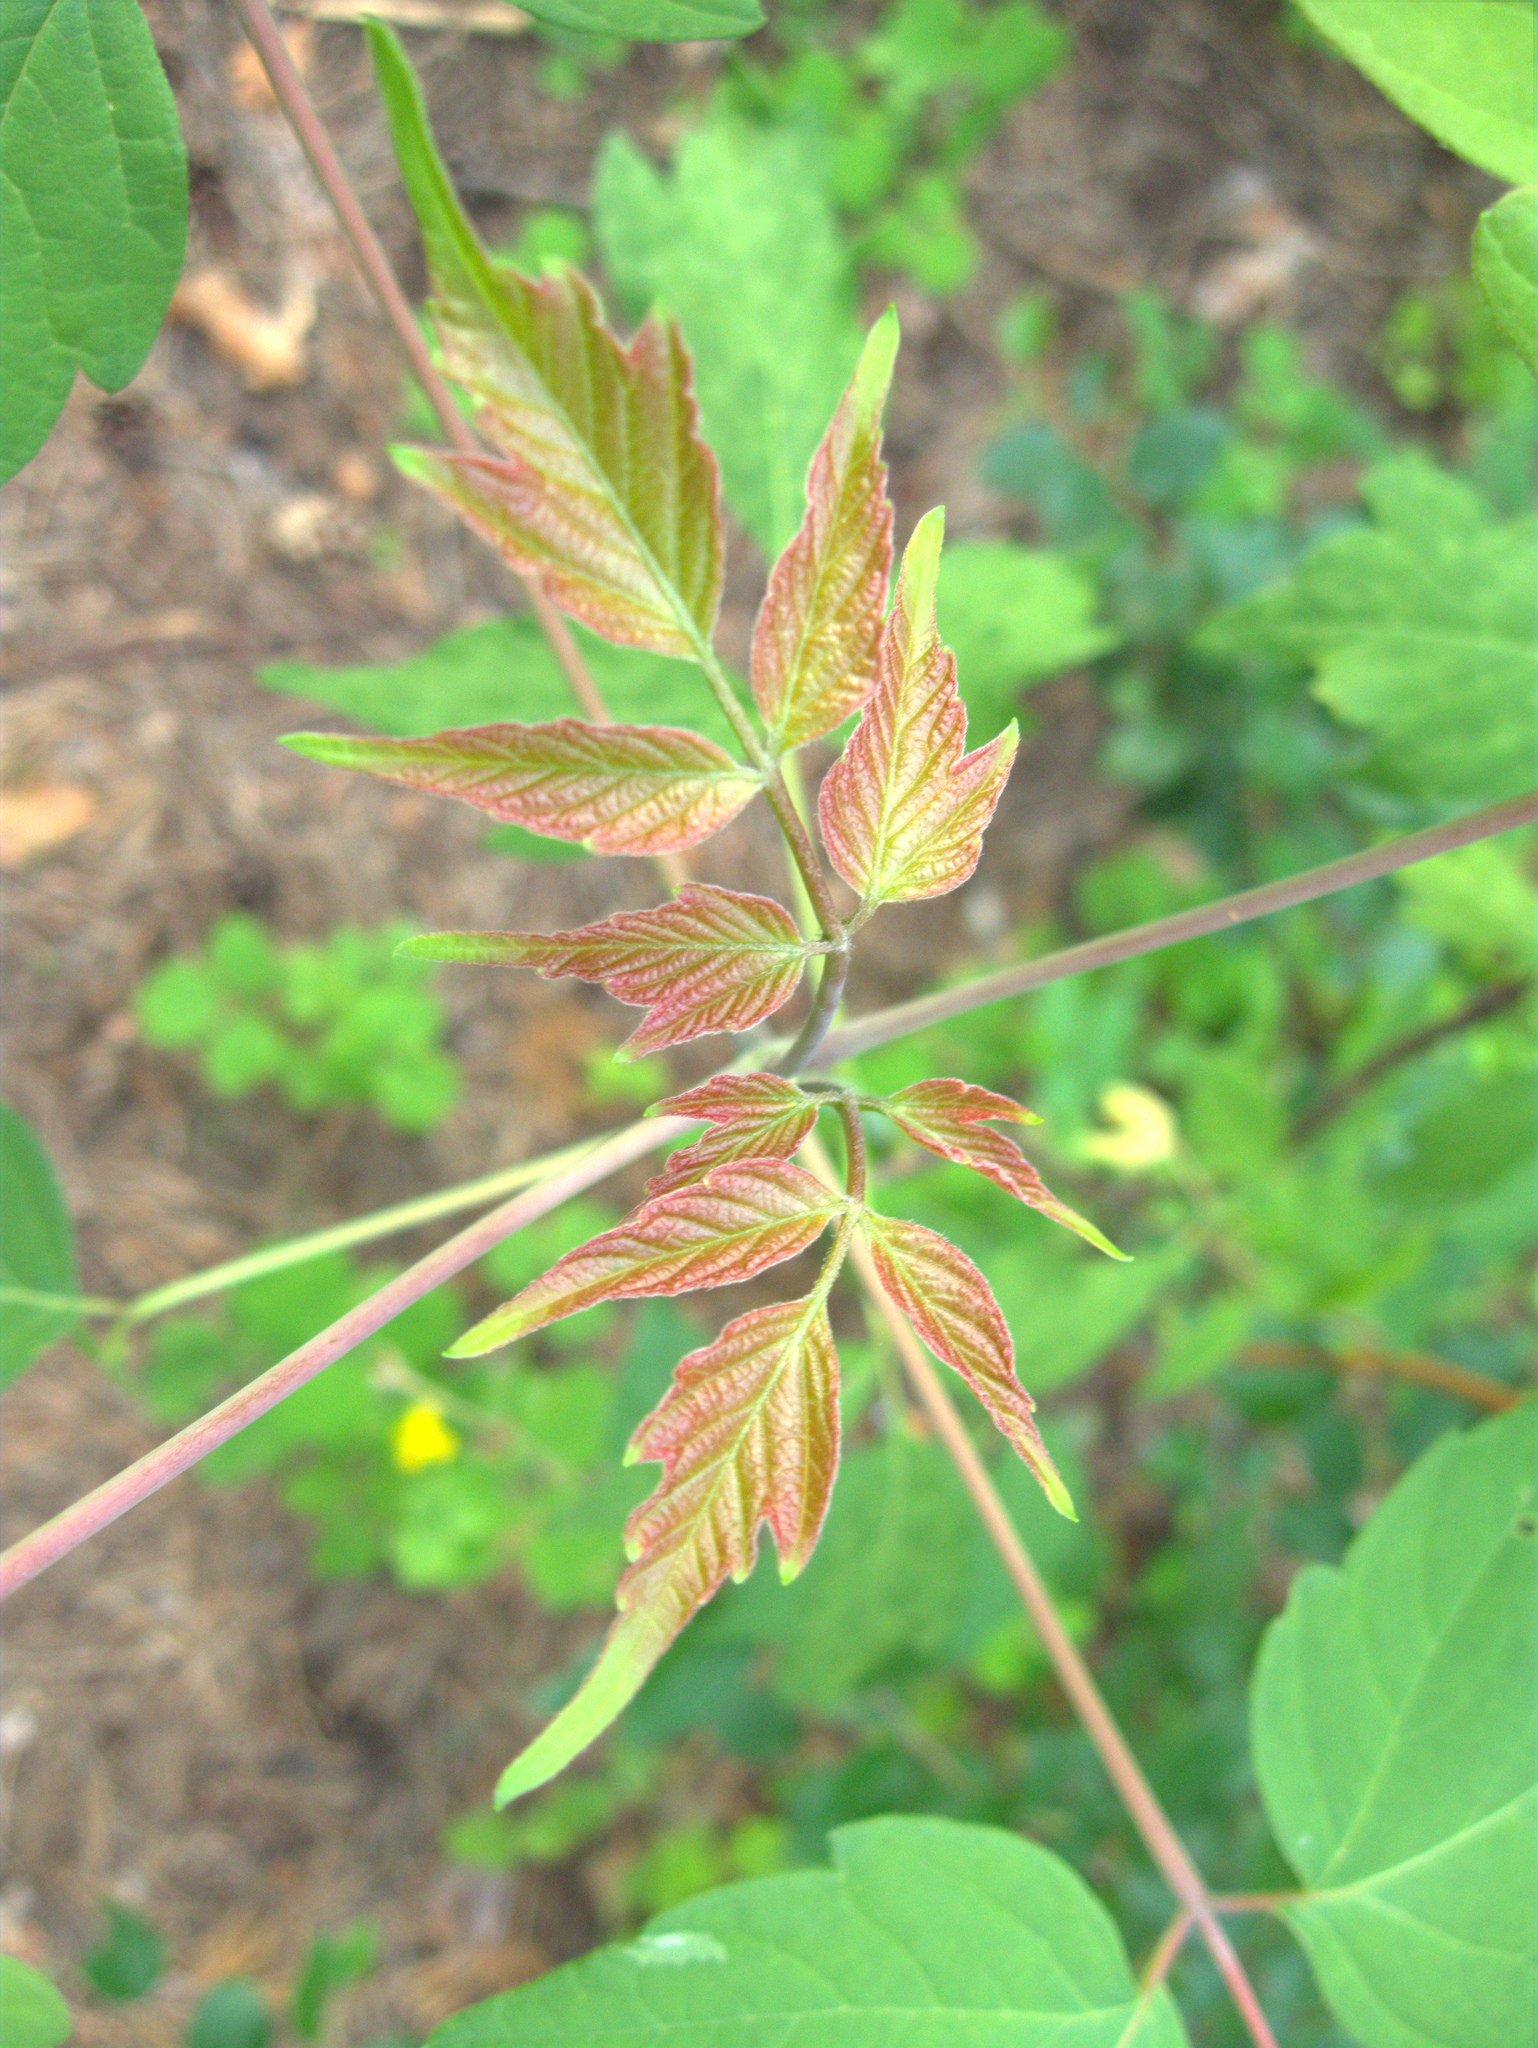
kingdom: Plantae
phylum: Tracheophyta
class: Magnoliopsida
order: Sapindales
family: Sapindaceae
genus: Acer
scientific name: Acer negundo
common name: Ashleaf maple
